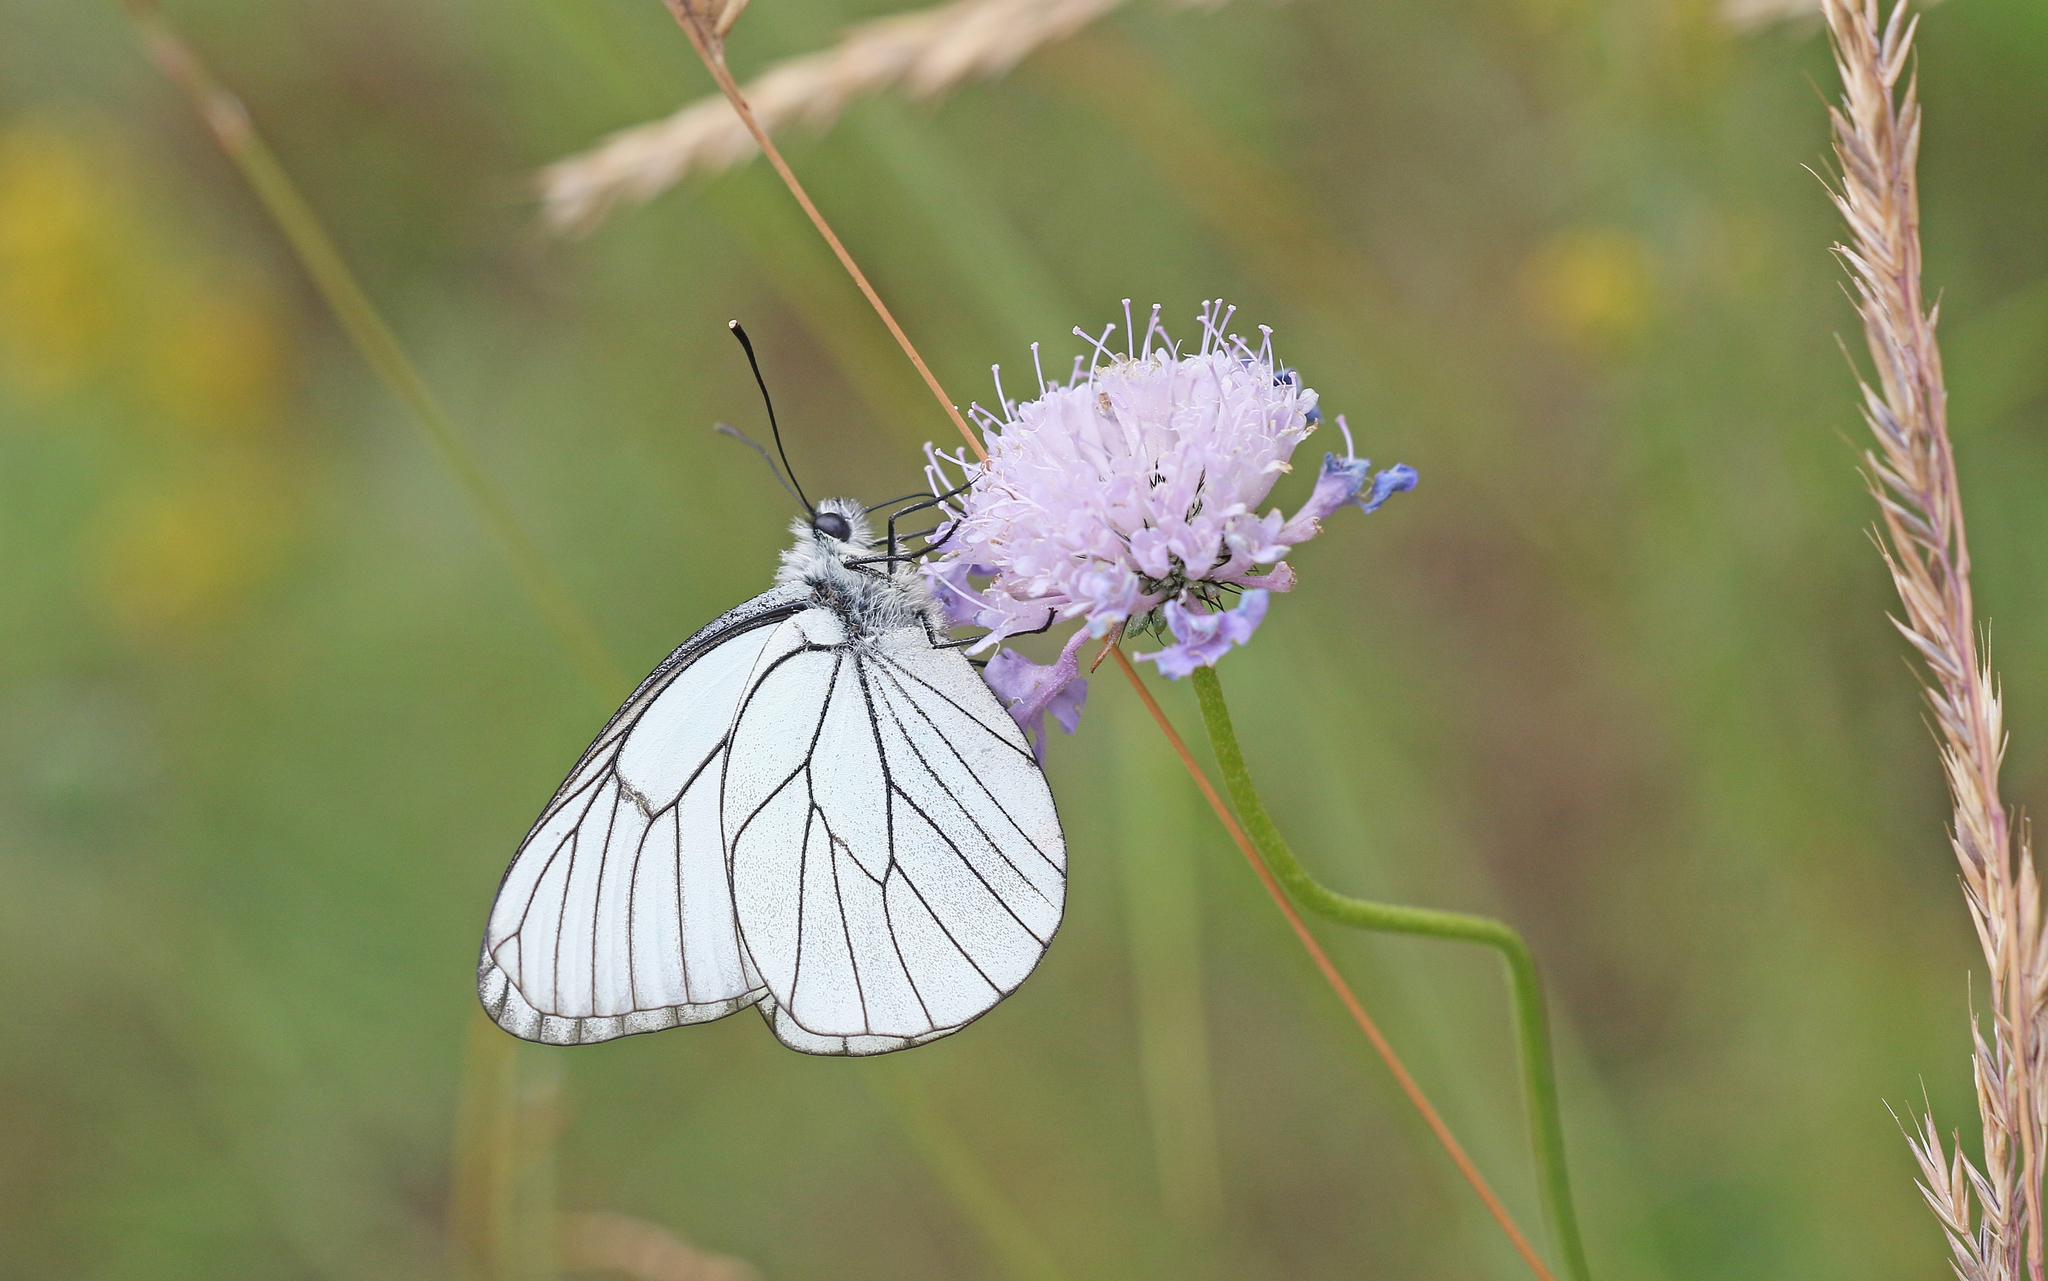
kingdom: Animalia
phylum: Arthropoda
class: Insecta
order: Lepidoptera
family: Pieridae
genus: Aporia
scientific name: Aporia crataegi
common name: Black-veined white
